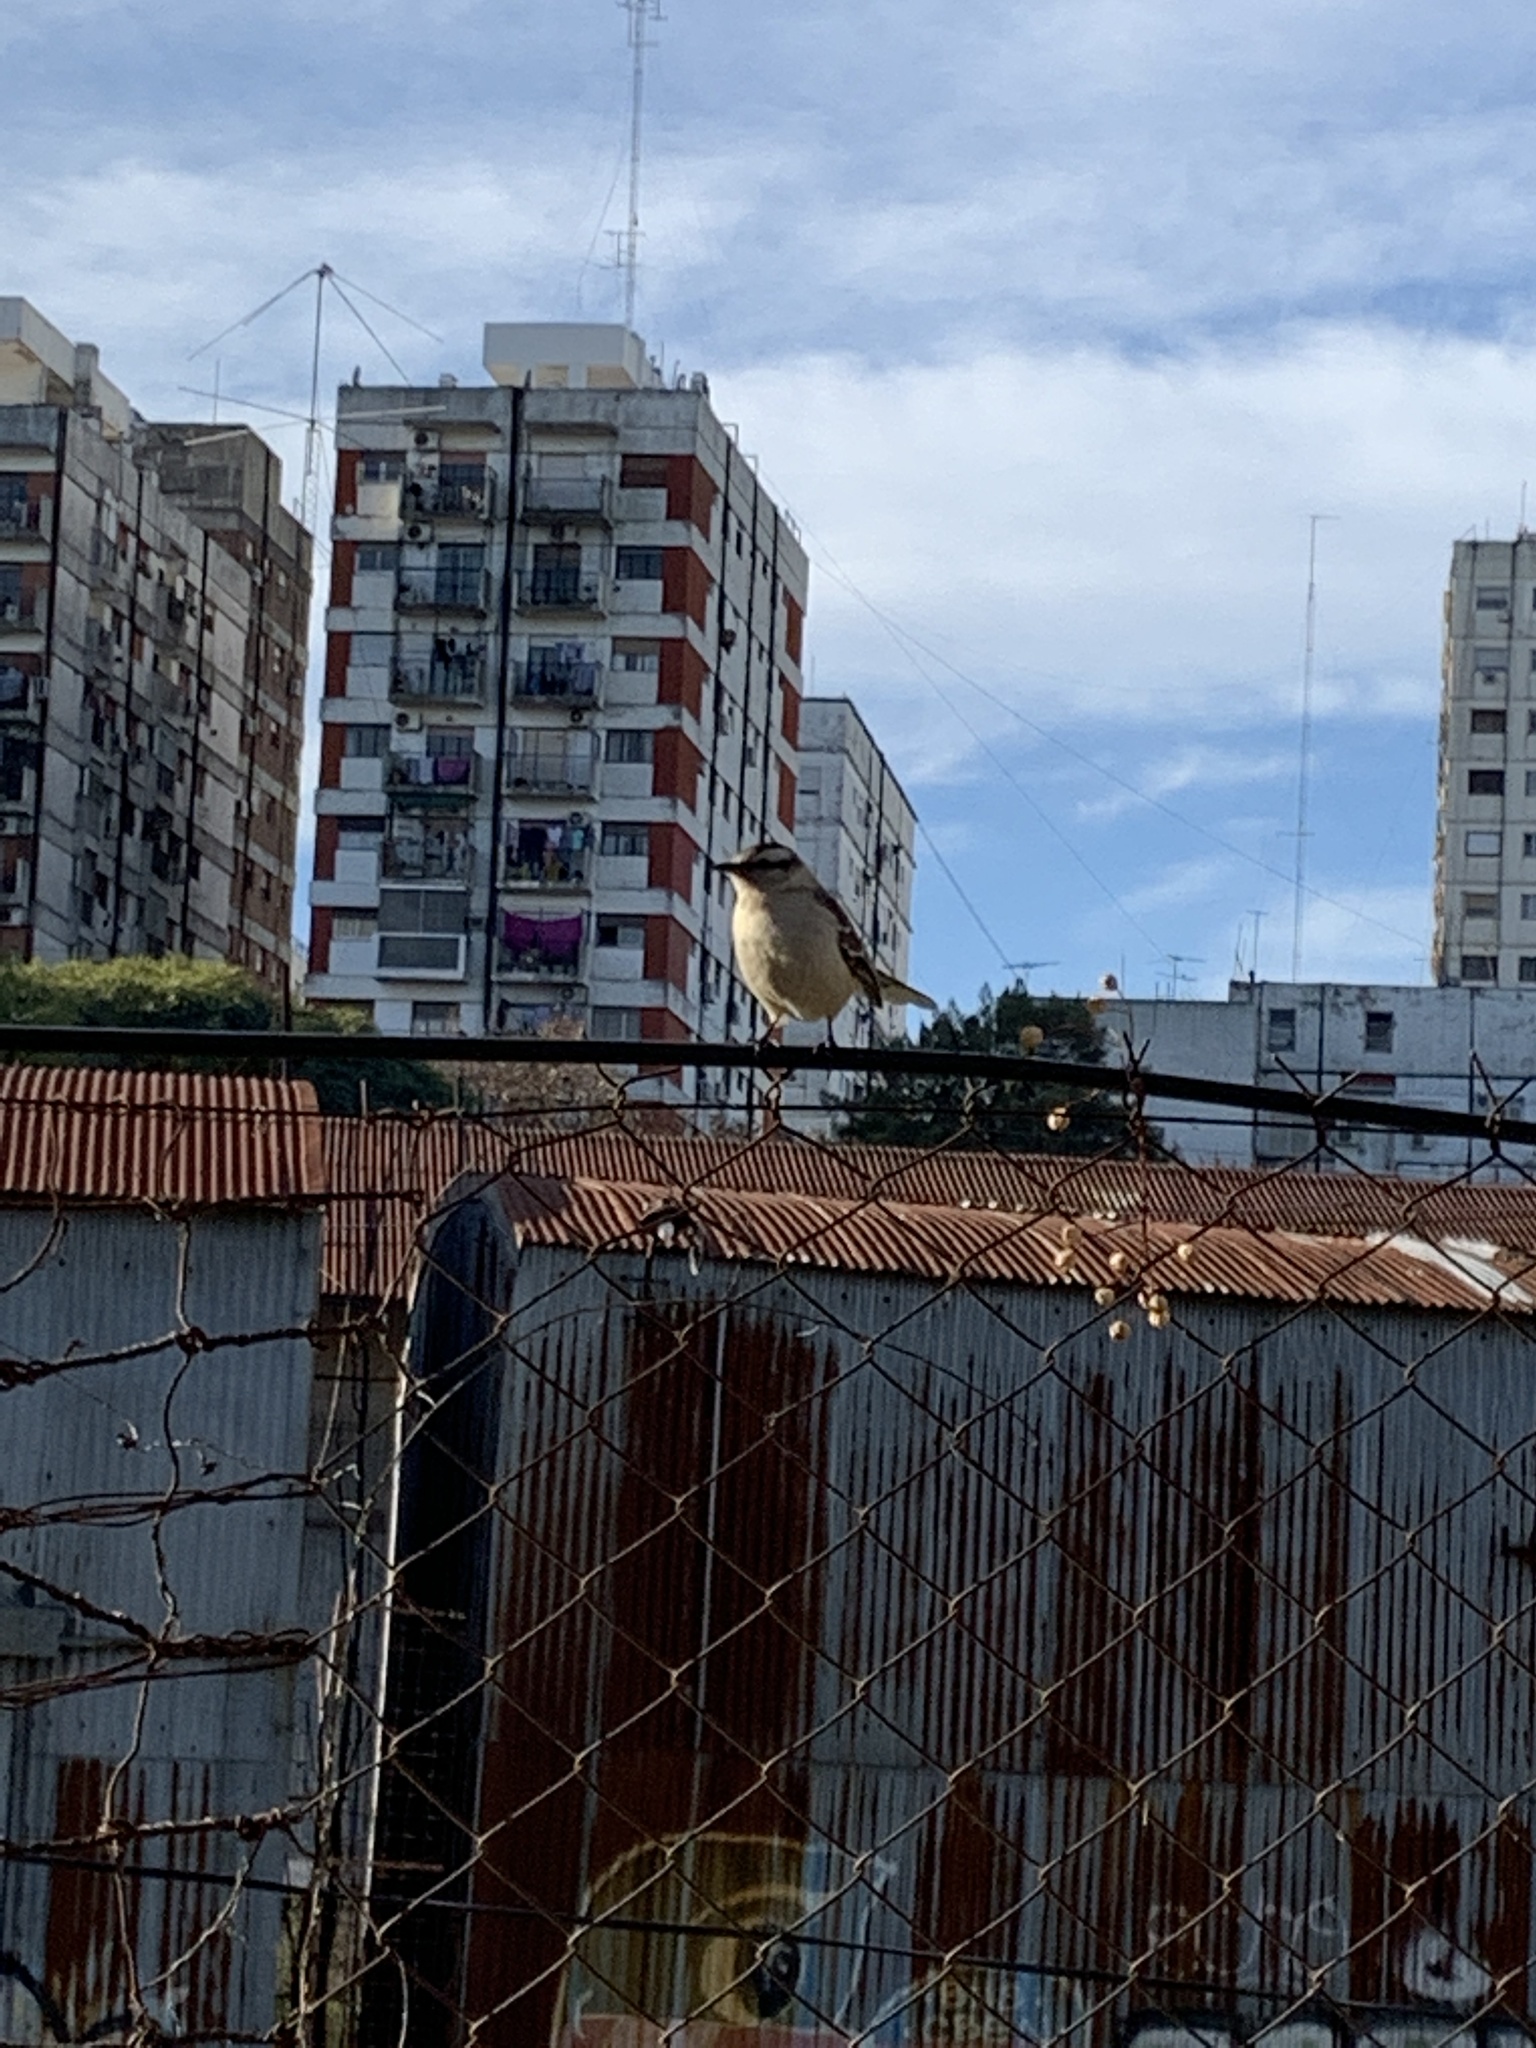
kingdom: Animalia
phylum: Chordata
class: Aves
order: Passeriformes
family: Mimidae
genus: Mimus
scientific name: Mimus saturninus
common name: Chalk-browed mockingbird
